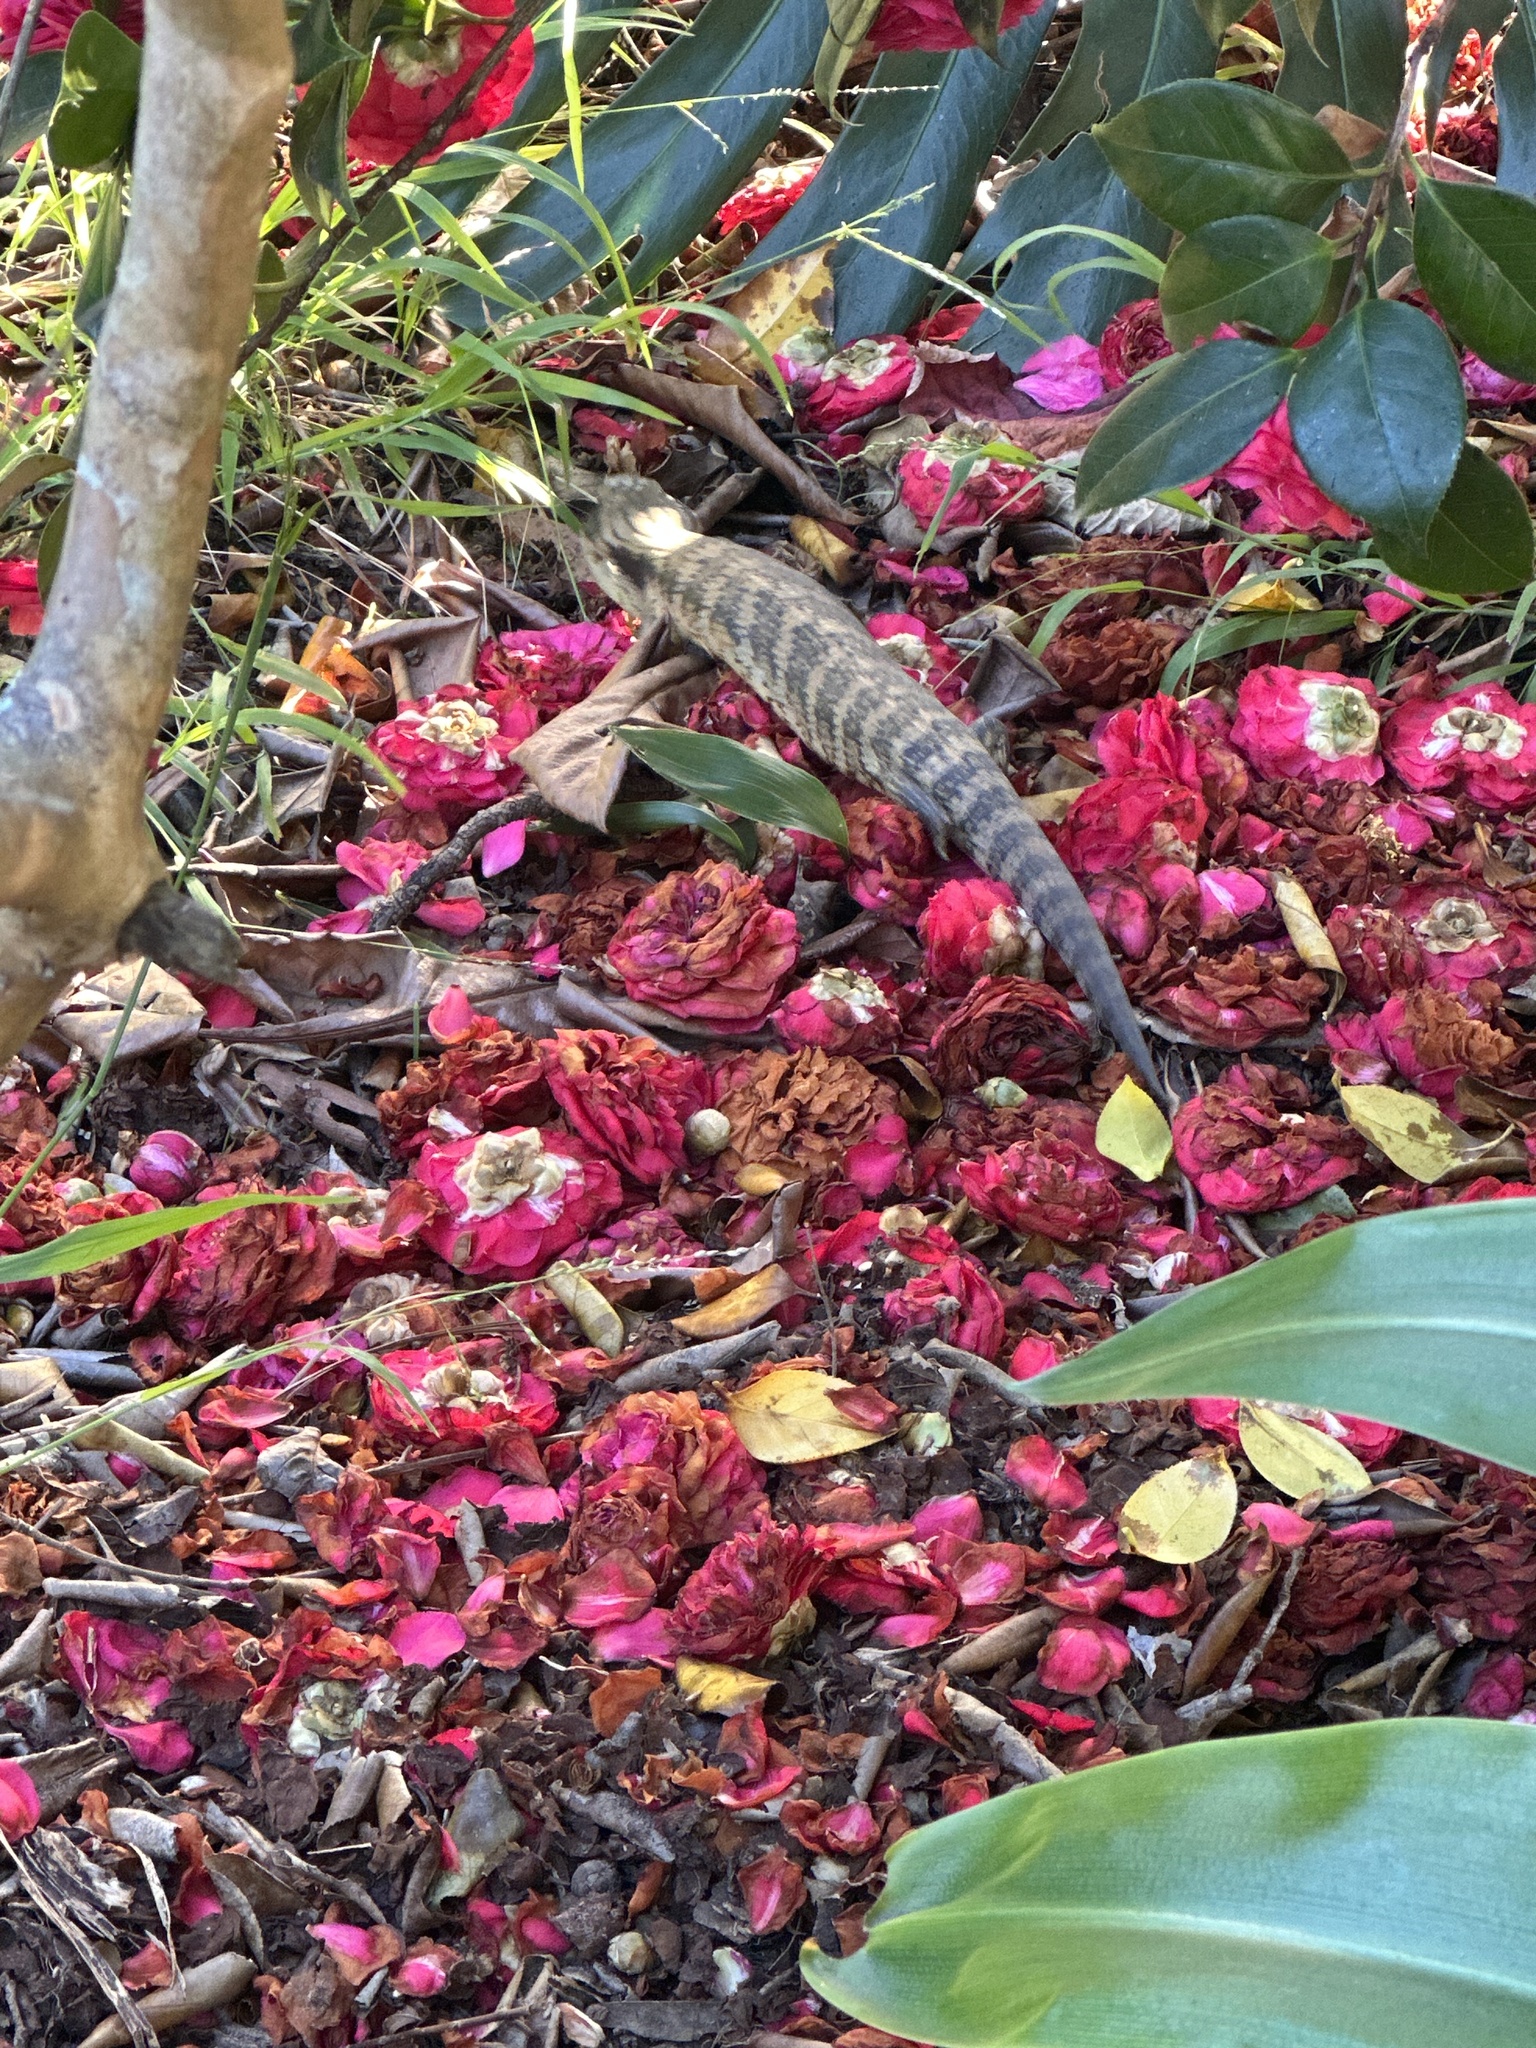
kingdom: Animalia
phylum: Chordata
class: Squamata
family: Scincidae
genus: Tiliqua
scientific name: Tiliqua scincoides
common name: Common bluetongue
